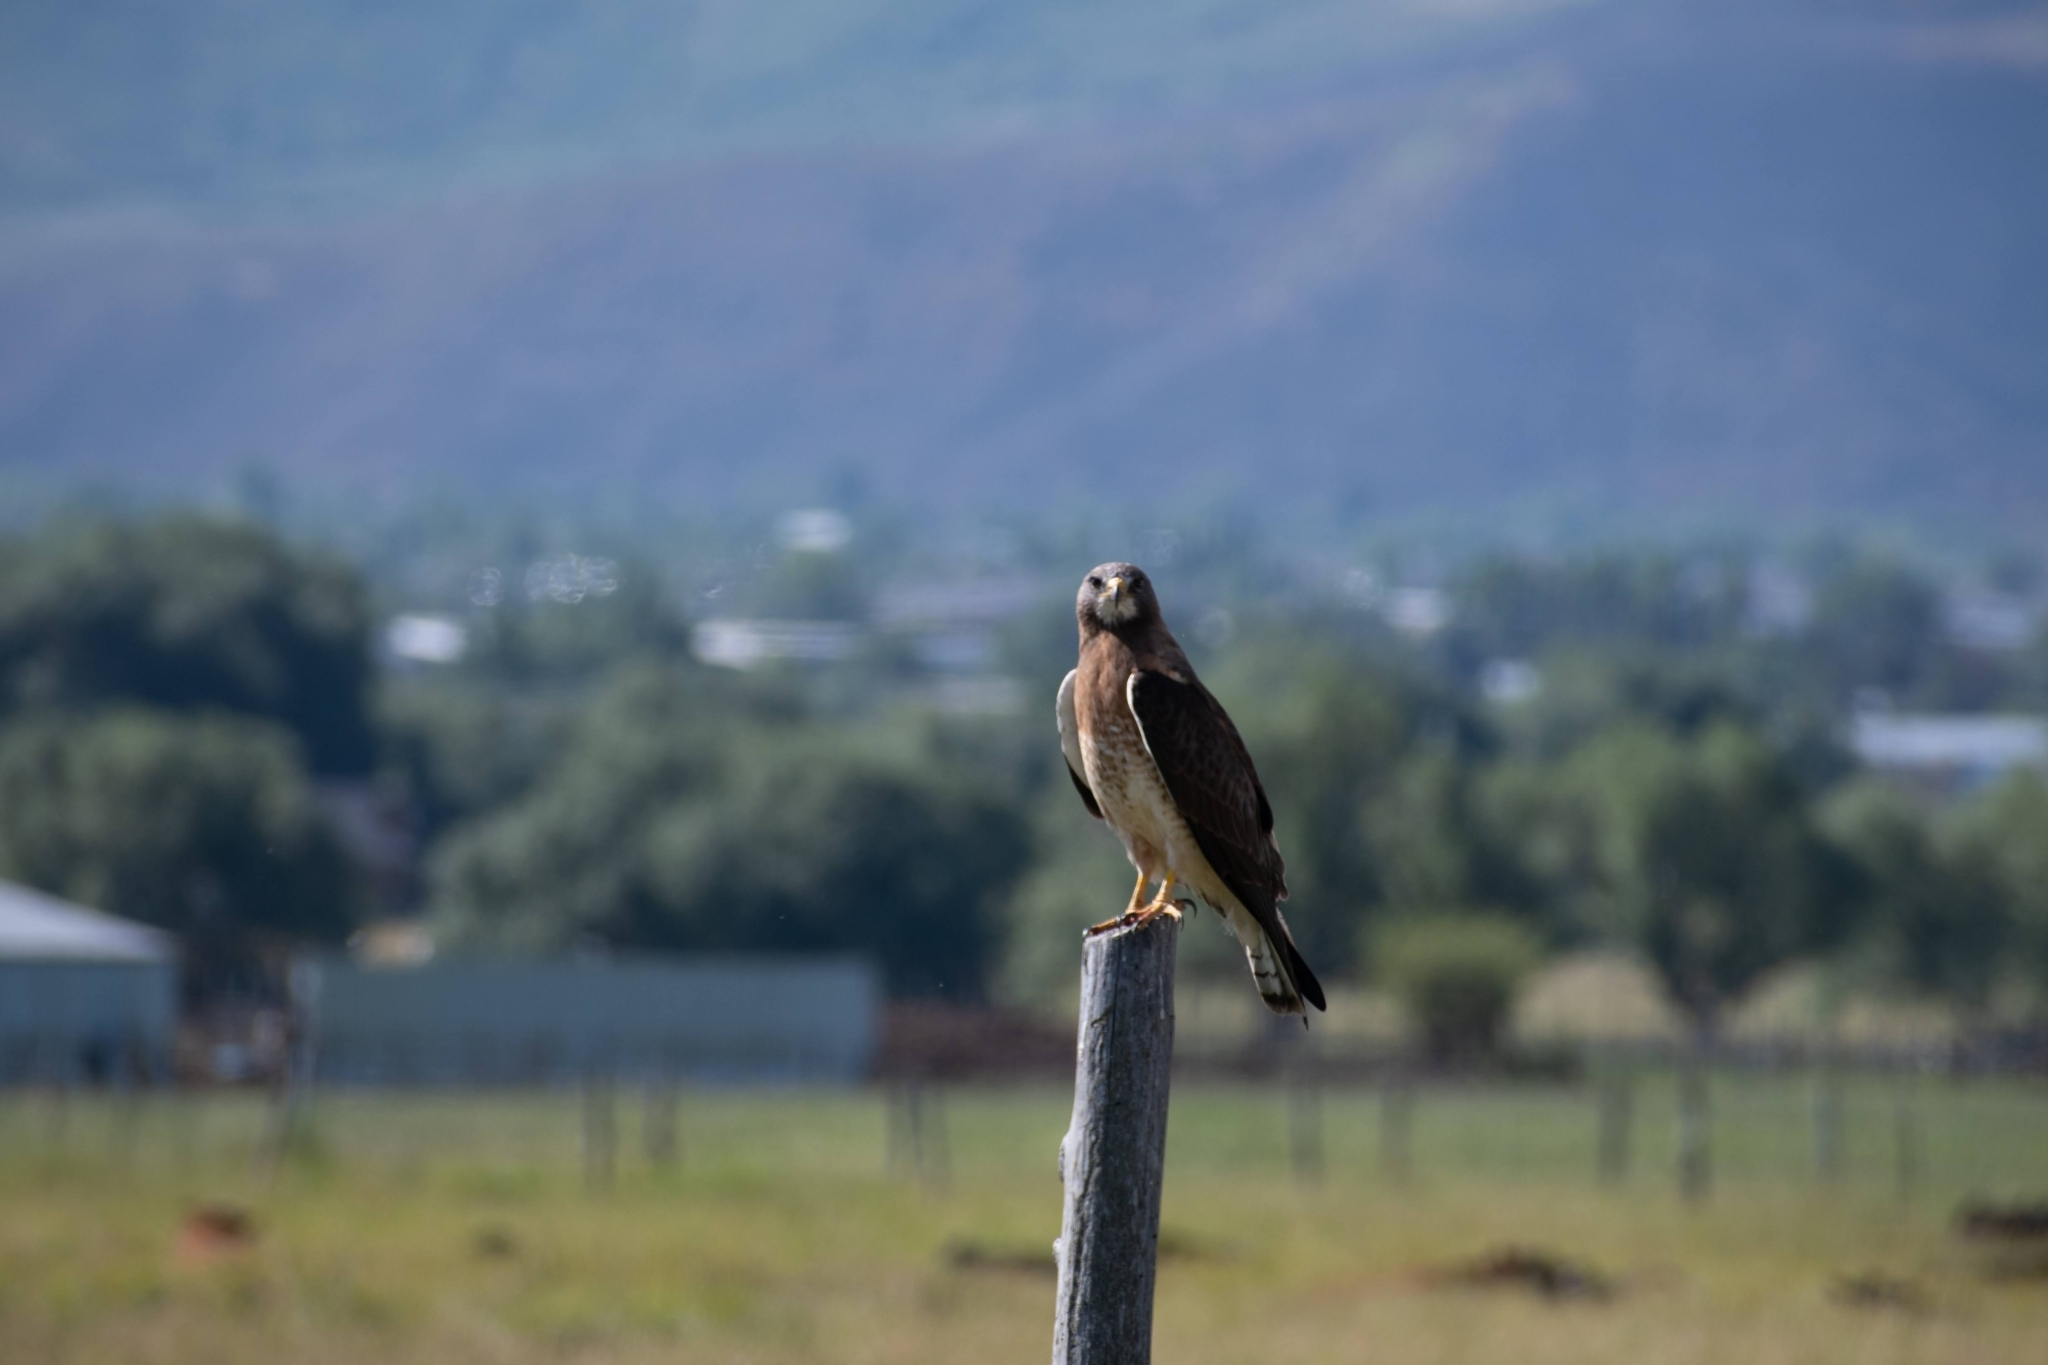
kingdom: Animalia
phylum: Chordata
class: Aves
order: Accipitriformes
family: Accipitridae
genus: Buteo
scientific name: Buteo swainsoni
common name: Swainson's hawk
